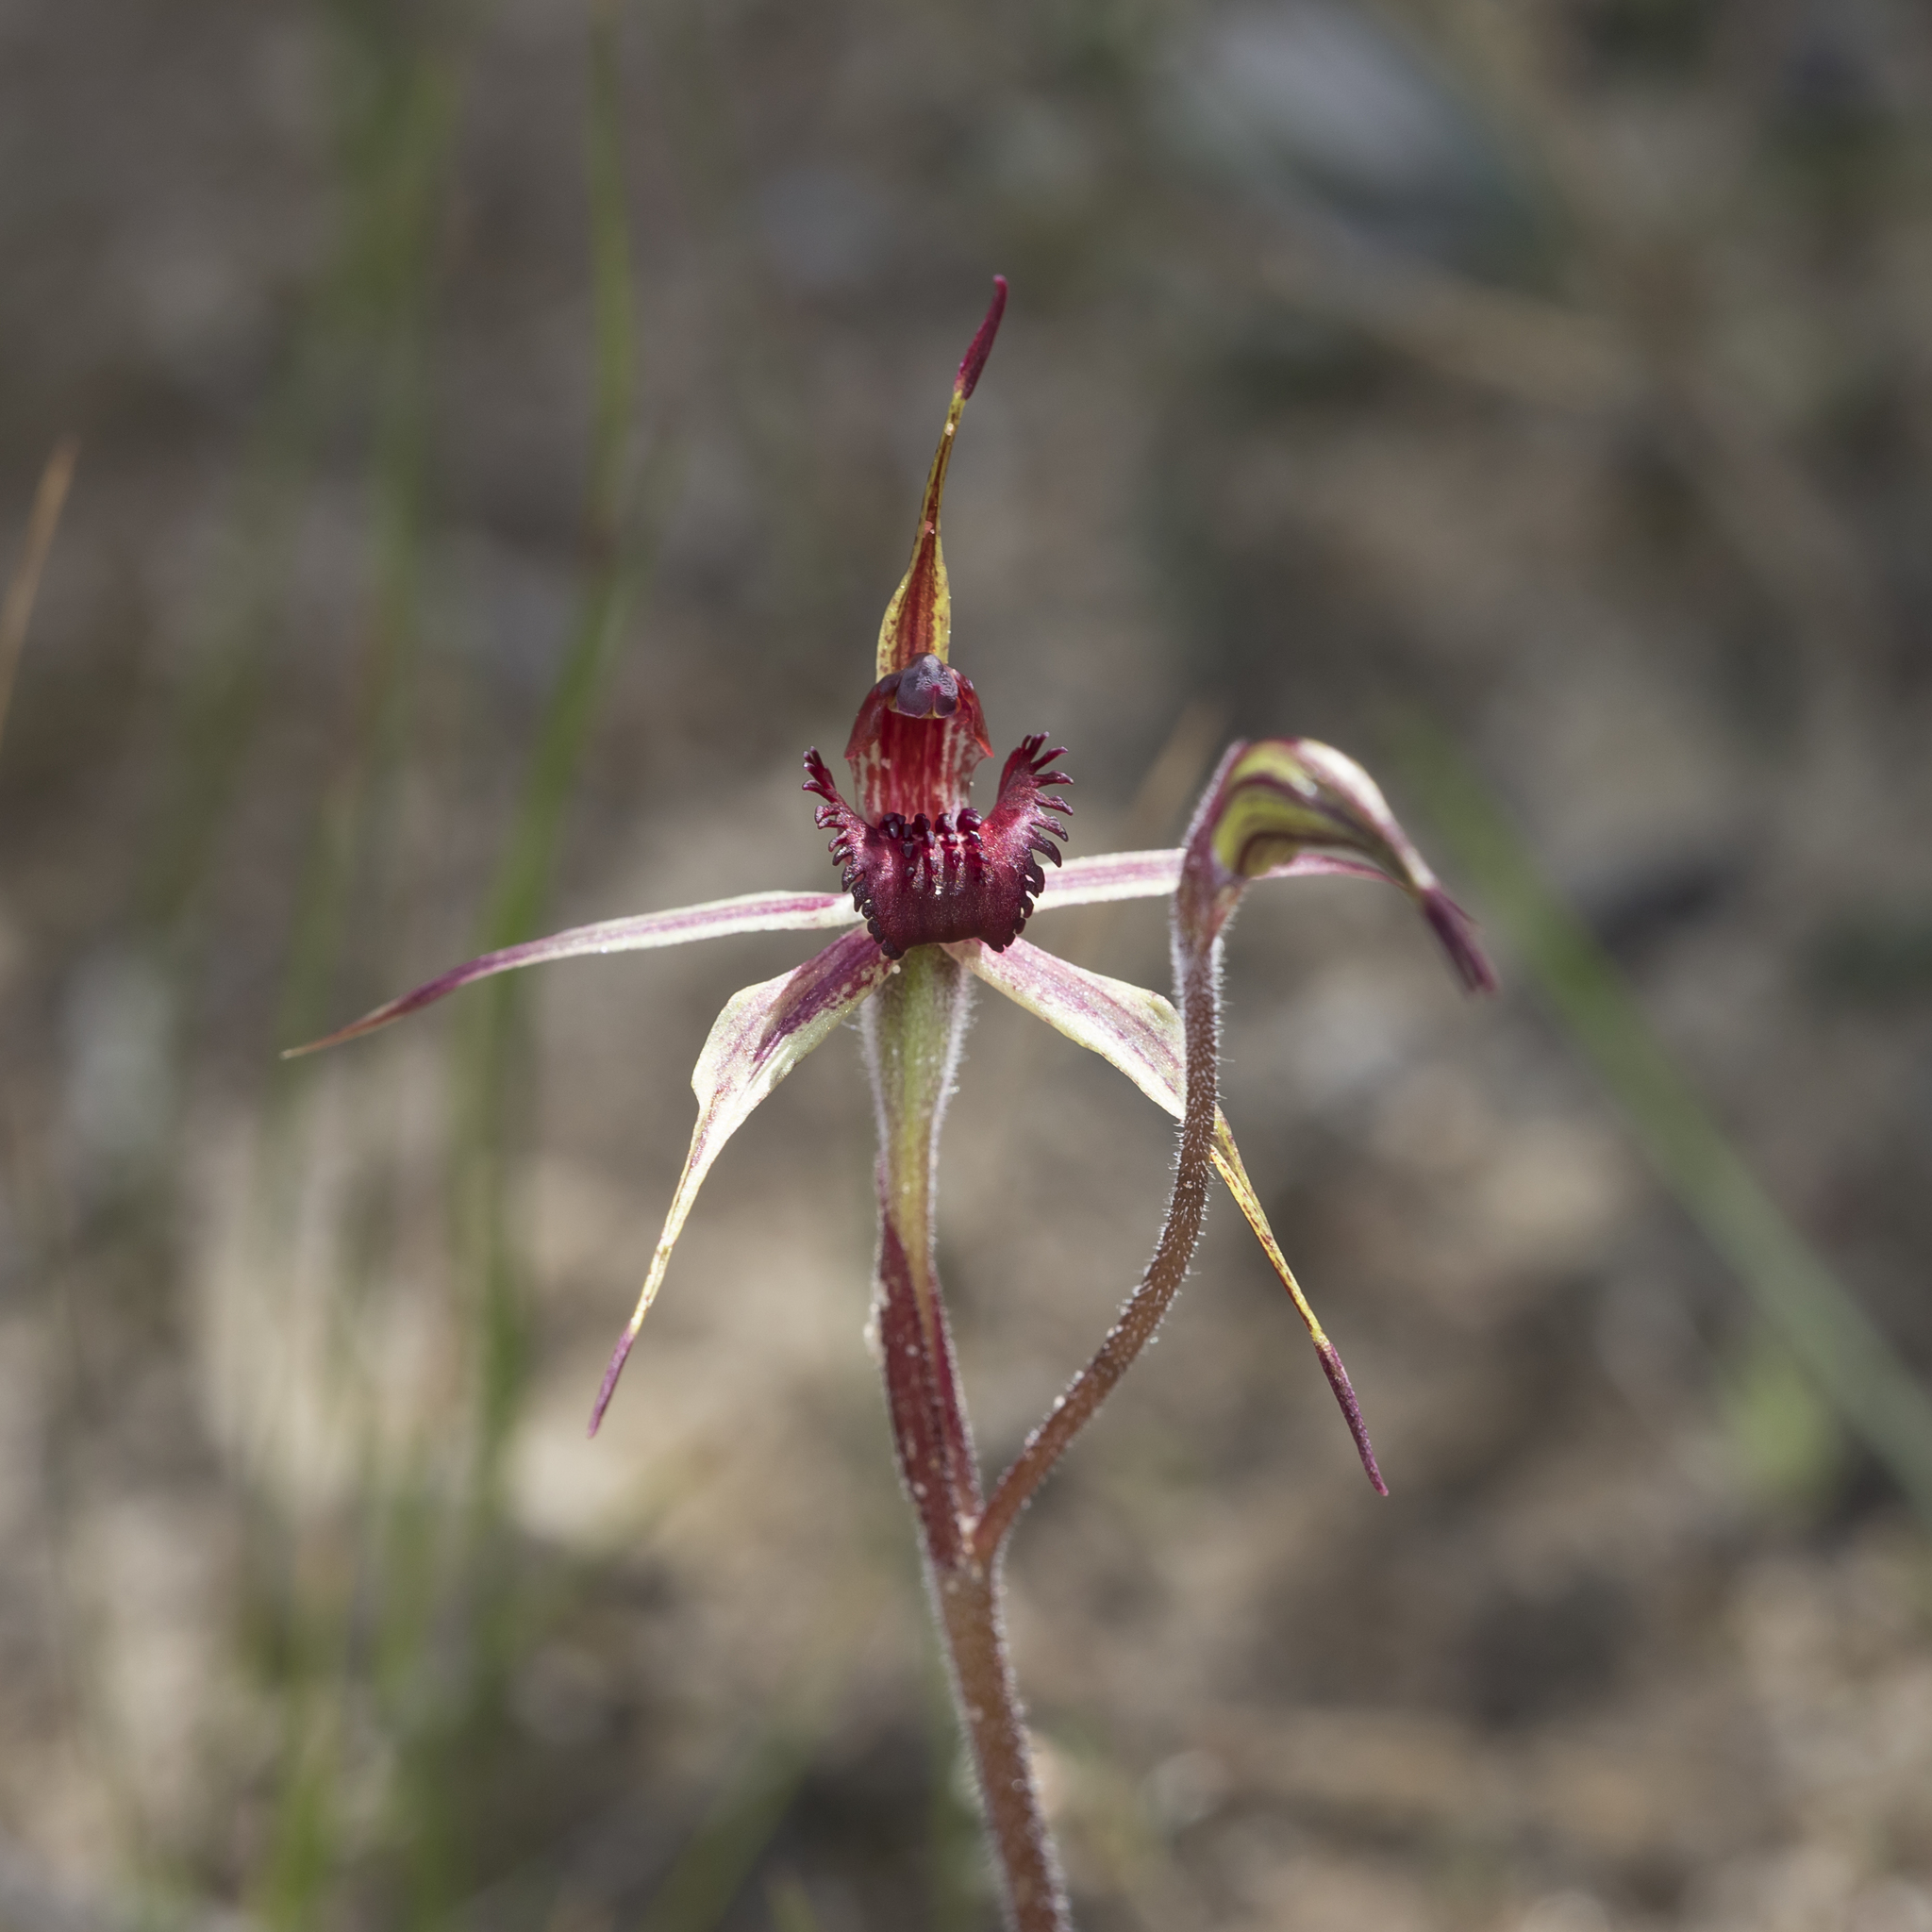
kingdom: Plantae
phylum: Tracheophyta
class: Liliopsida
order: Asparagales
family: Orchidaceae
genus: Caladenia
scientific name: Caladenia reticulata
